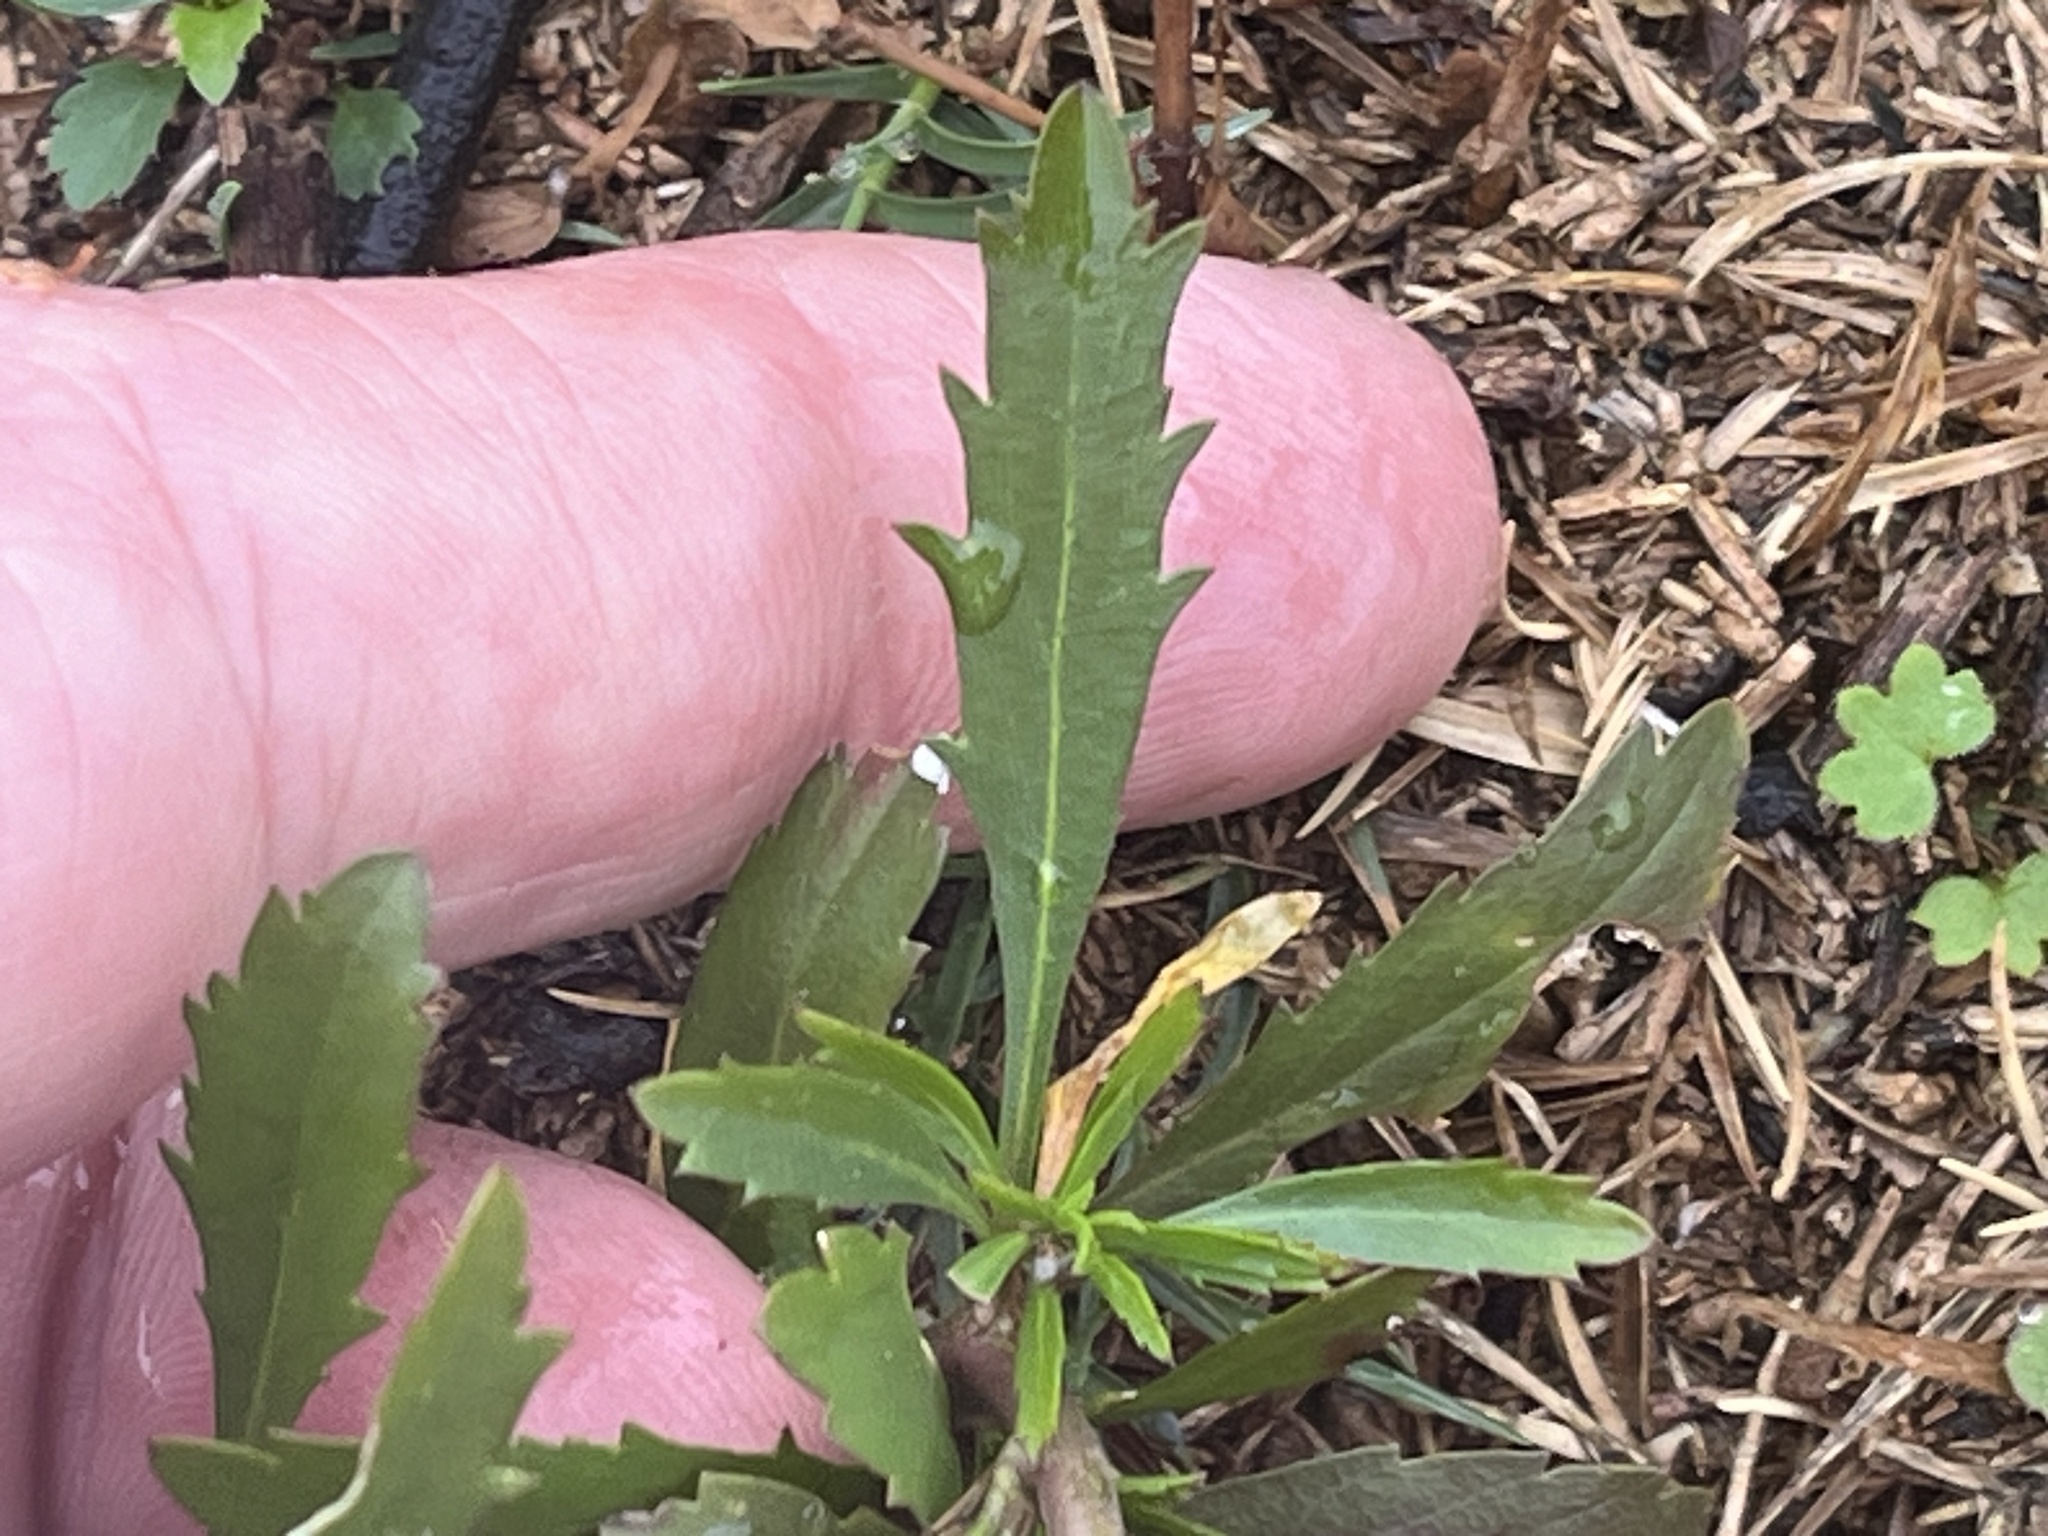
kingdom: Plantae
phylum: Tracheophyta
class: Magnoliopsida
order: Brassicales
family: Brassicaceae
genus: Lepidium
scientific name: Lepidium virginicum
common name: Least pepperwort
